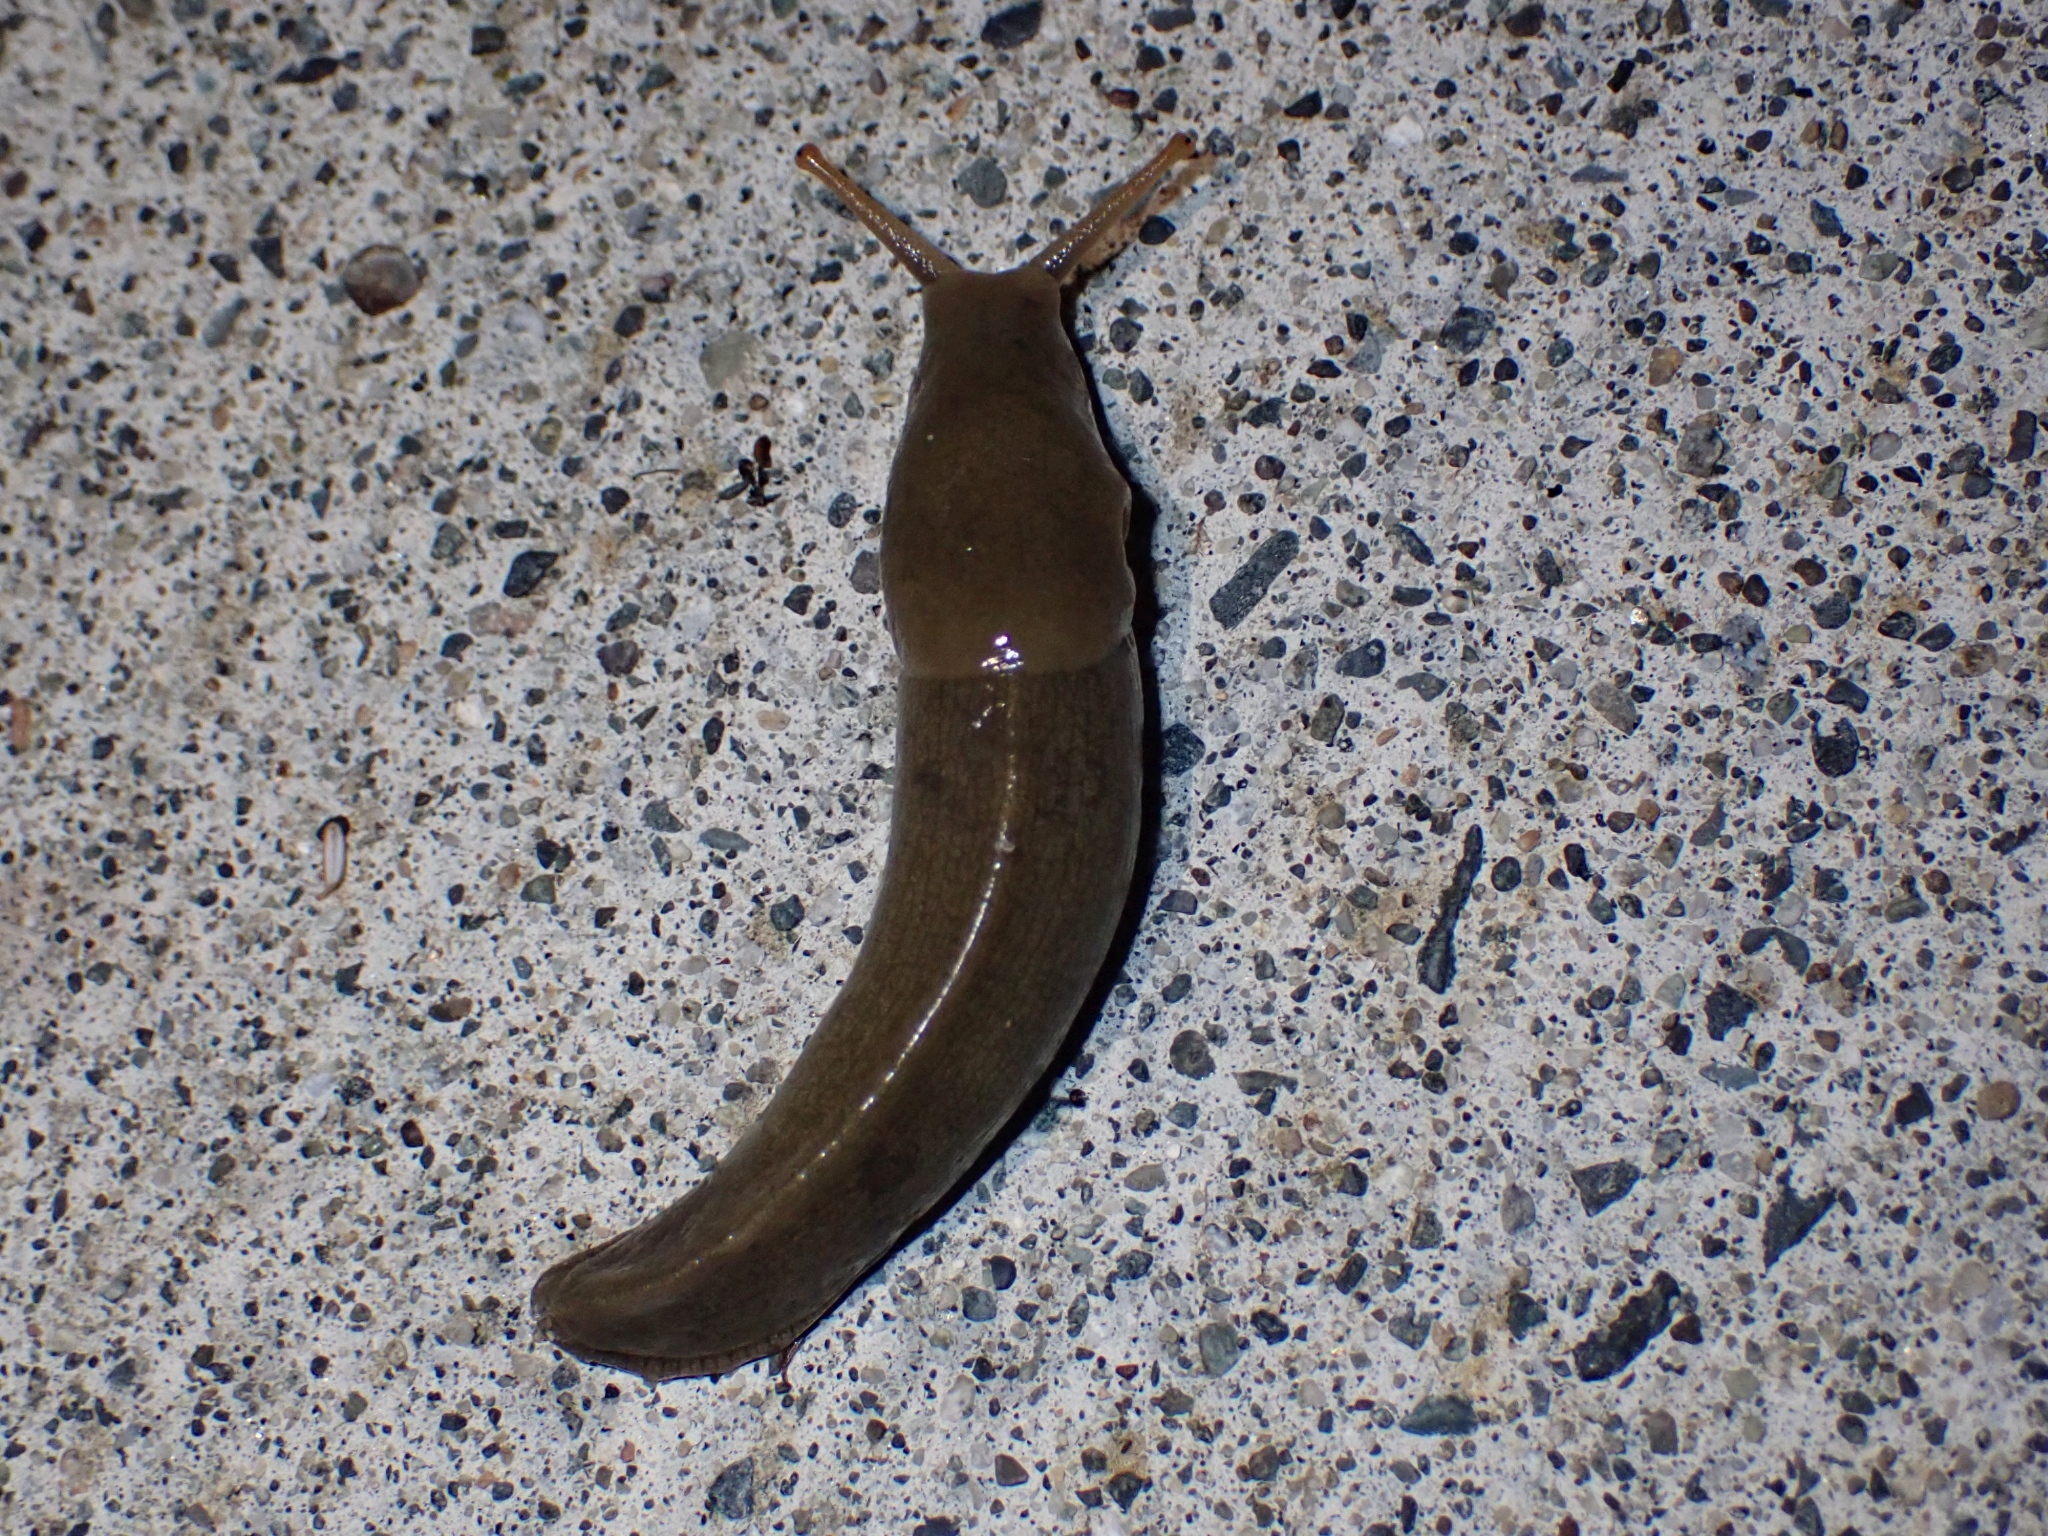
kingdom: Animalia
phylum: Mollusca
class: Gastropoda
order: Stylommatophora
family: Ariolimacidae
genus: Ariolimax
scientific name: Ariolimax columbianus
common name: Pacific banana slug
